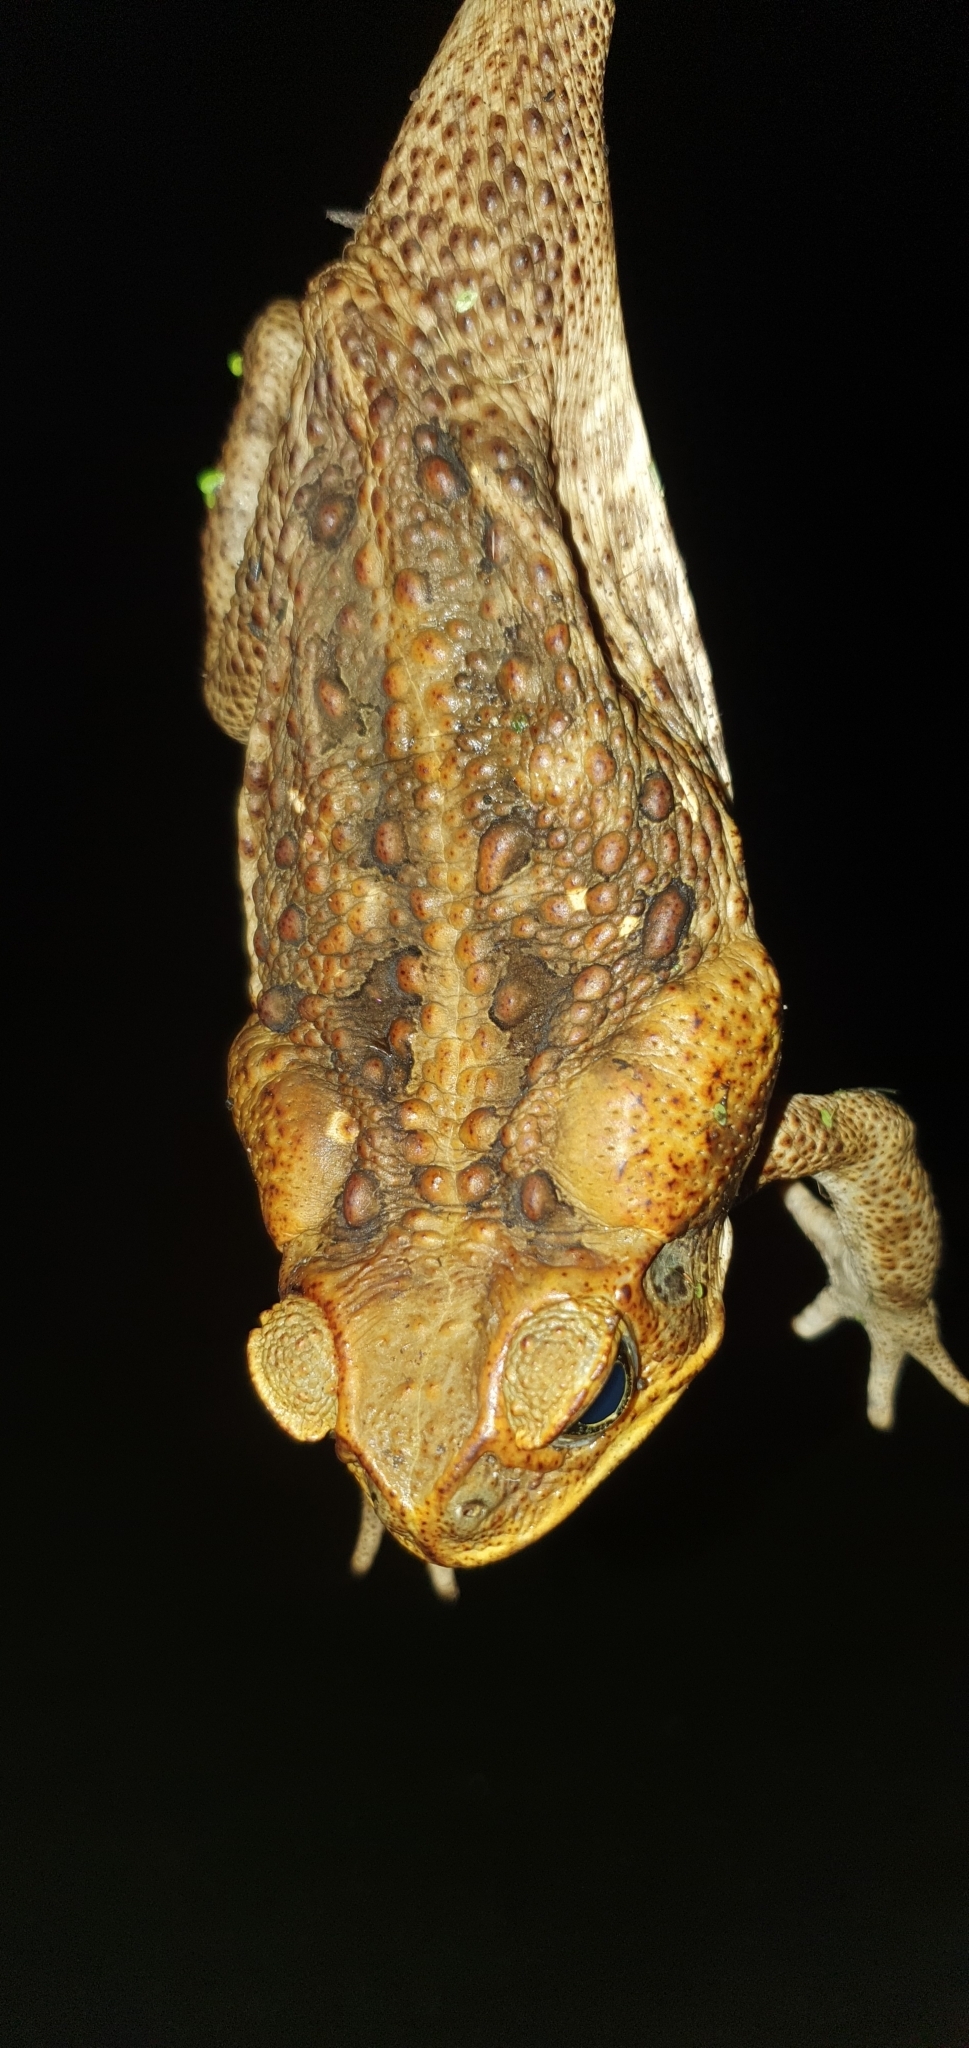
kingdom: Animalia
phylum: Chordata
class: Amphibia
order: Anura
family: Bufonidae
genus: Rhinella
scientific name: Rhinella marina
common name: Cane toad
